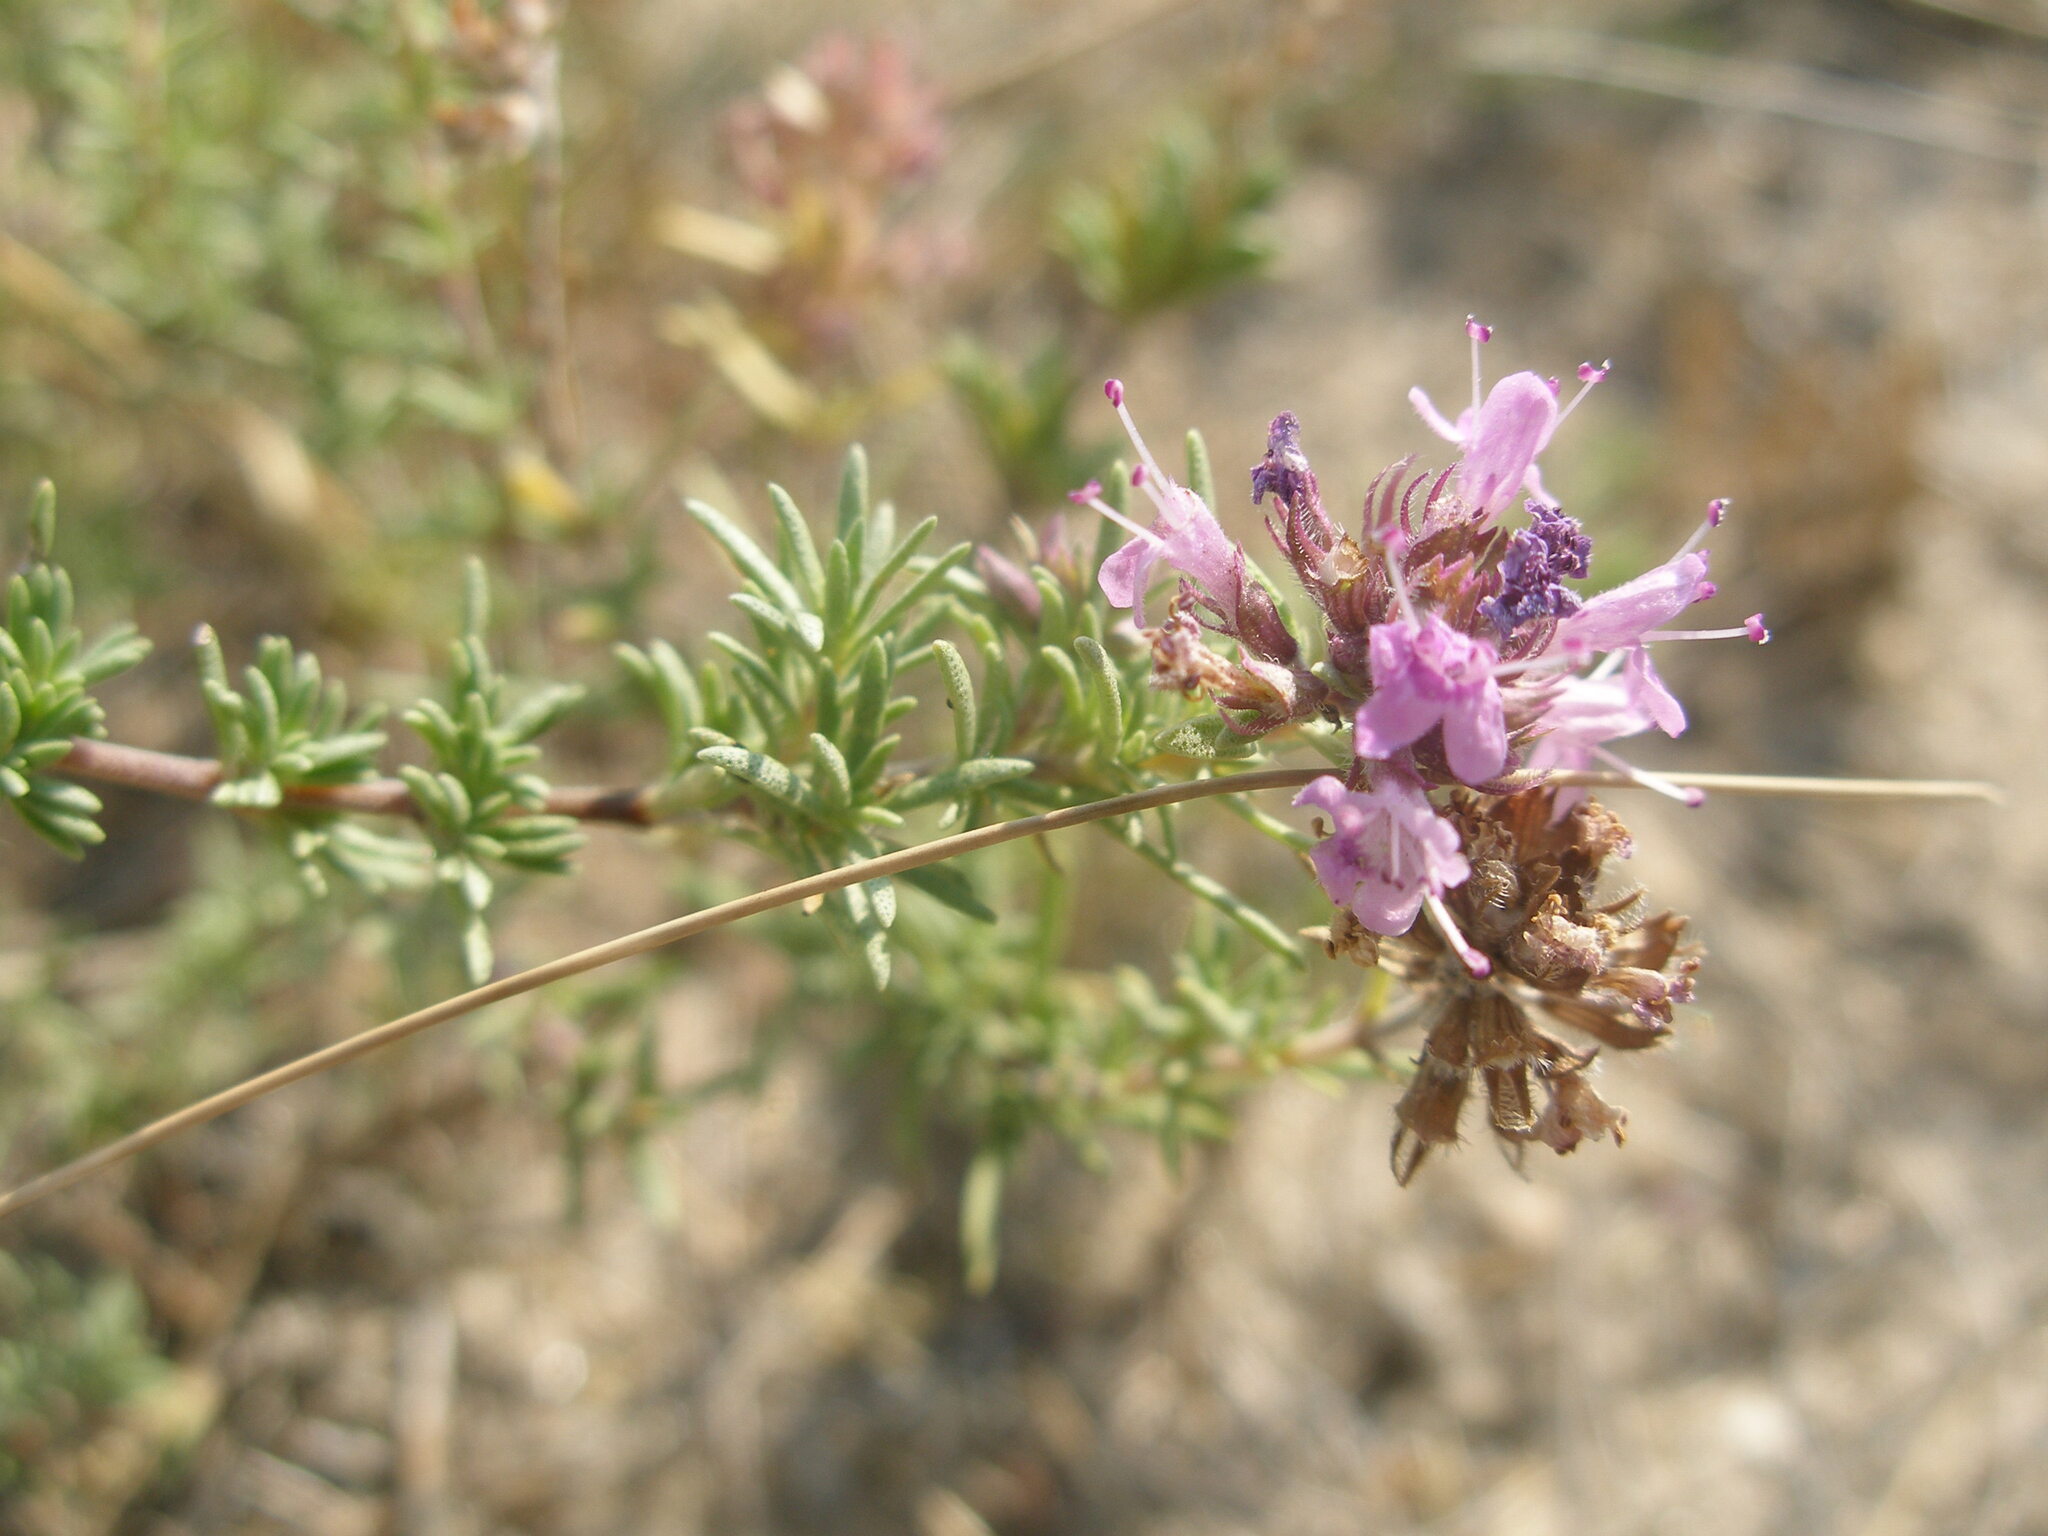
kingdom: Plantae
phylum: Tracheophyta
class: Magnoliopsida
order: Lamiales
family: Lamiaceae
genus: Thymus
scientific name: Thymus pallasianus
